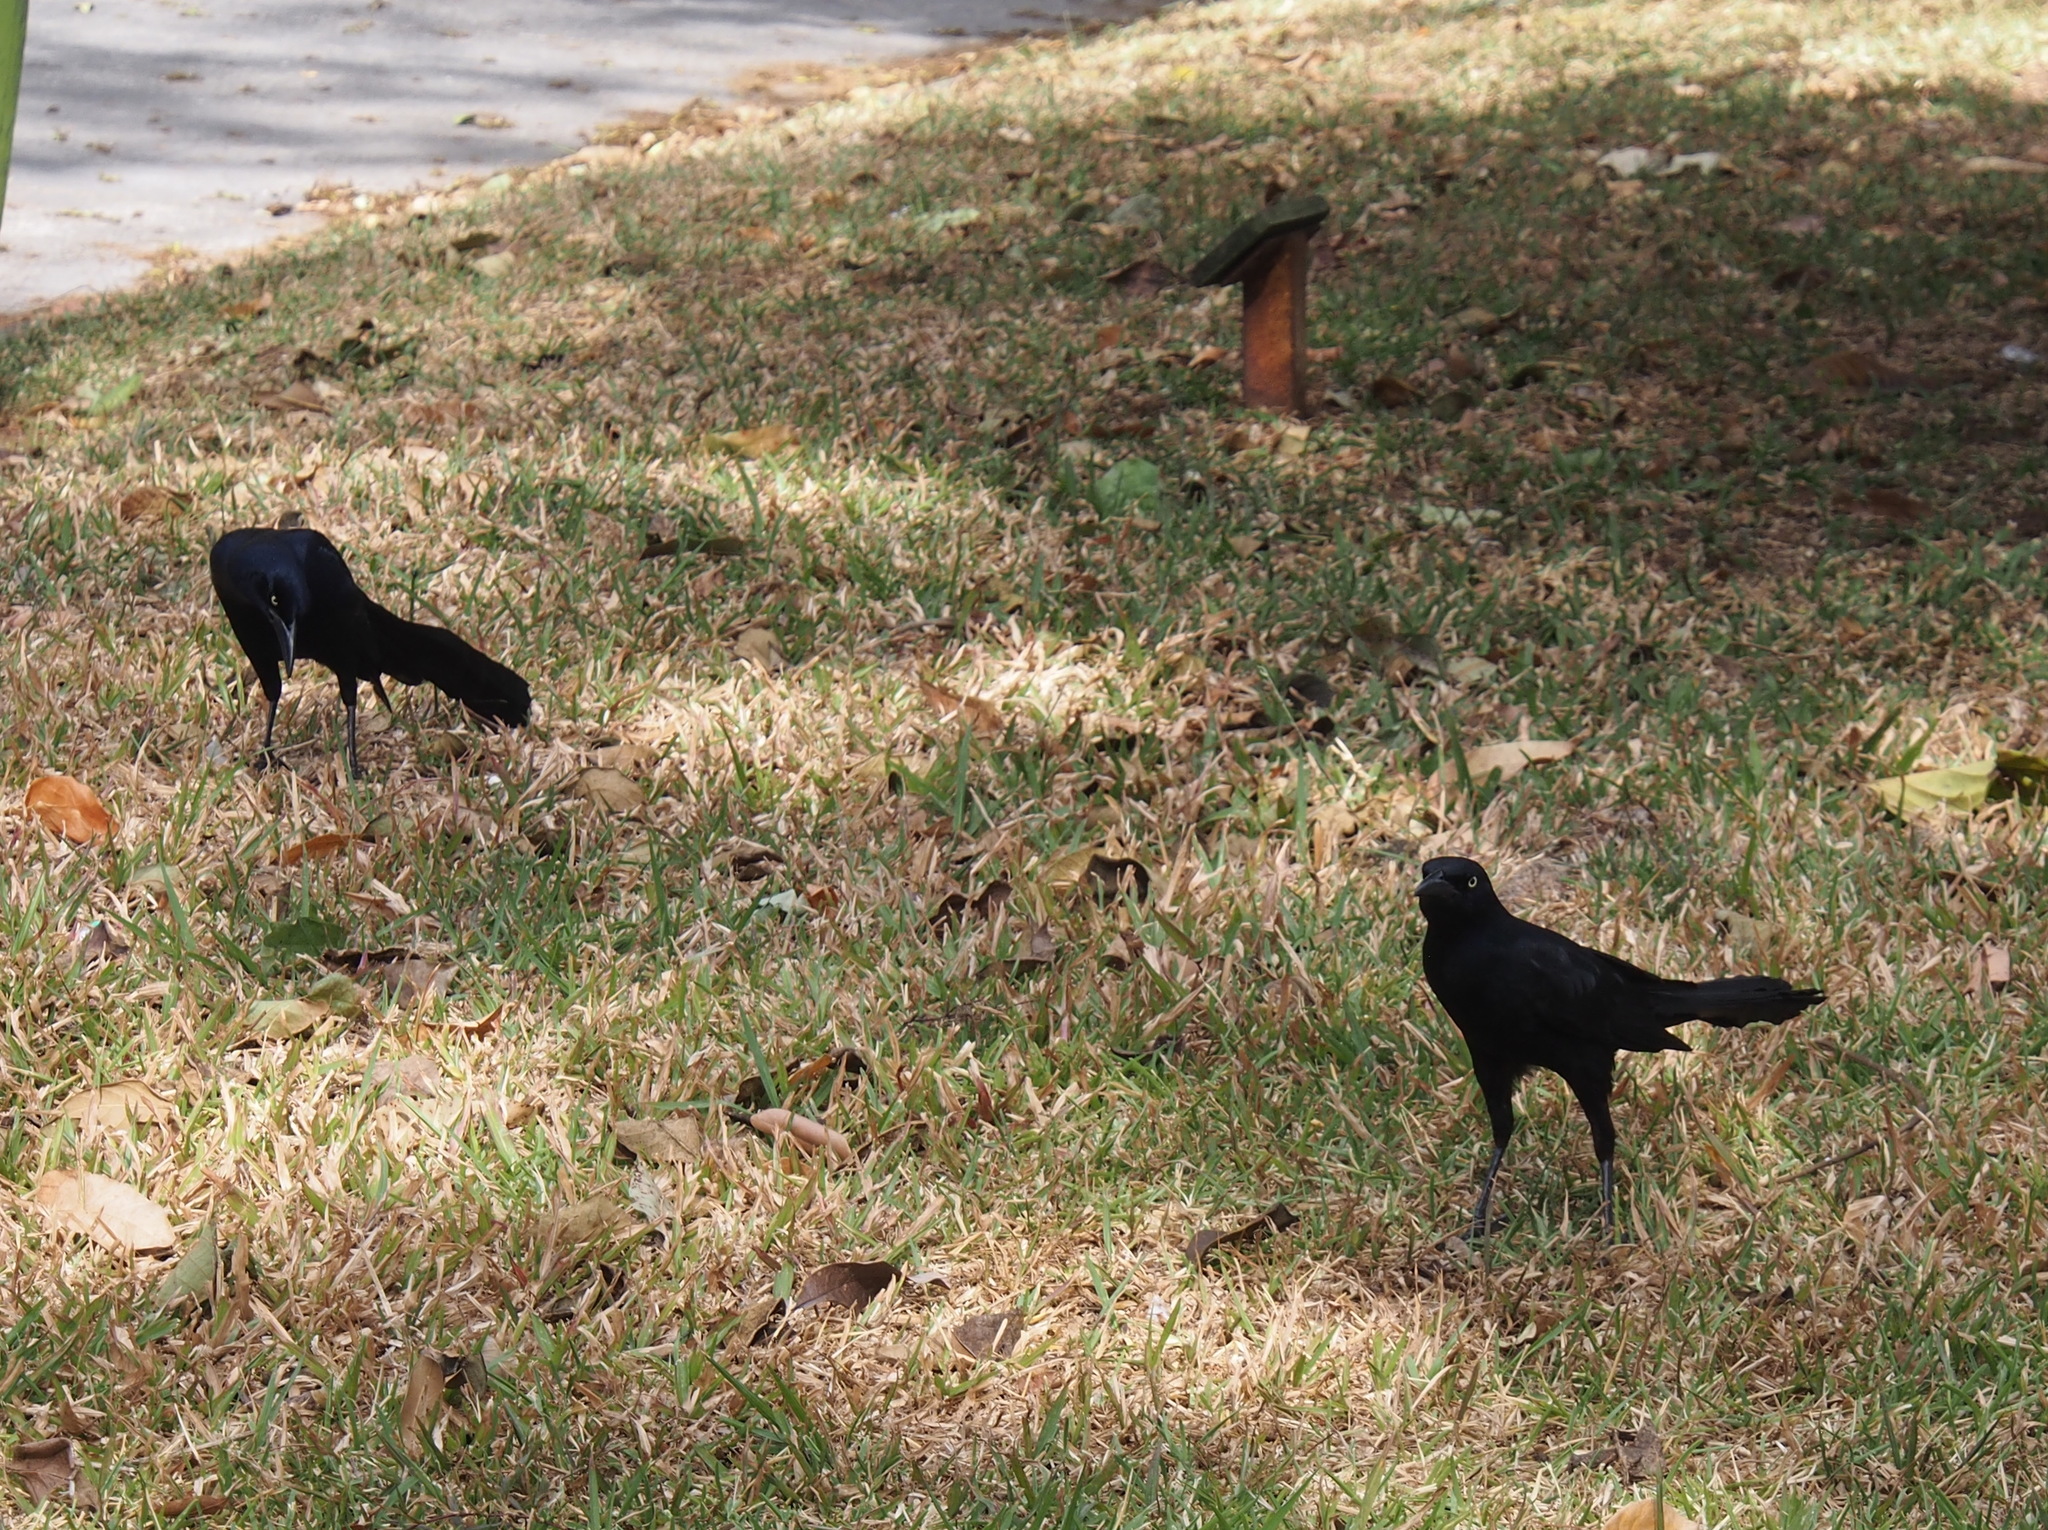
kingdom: Animalia
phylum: Chordata
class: Aves
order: Passeriformes
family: Icteridae
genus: Quiscalus
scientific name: Quiscalus mexicanus
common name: Great-tailed grackle
